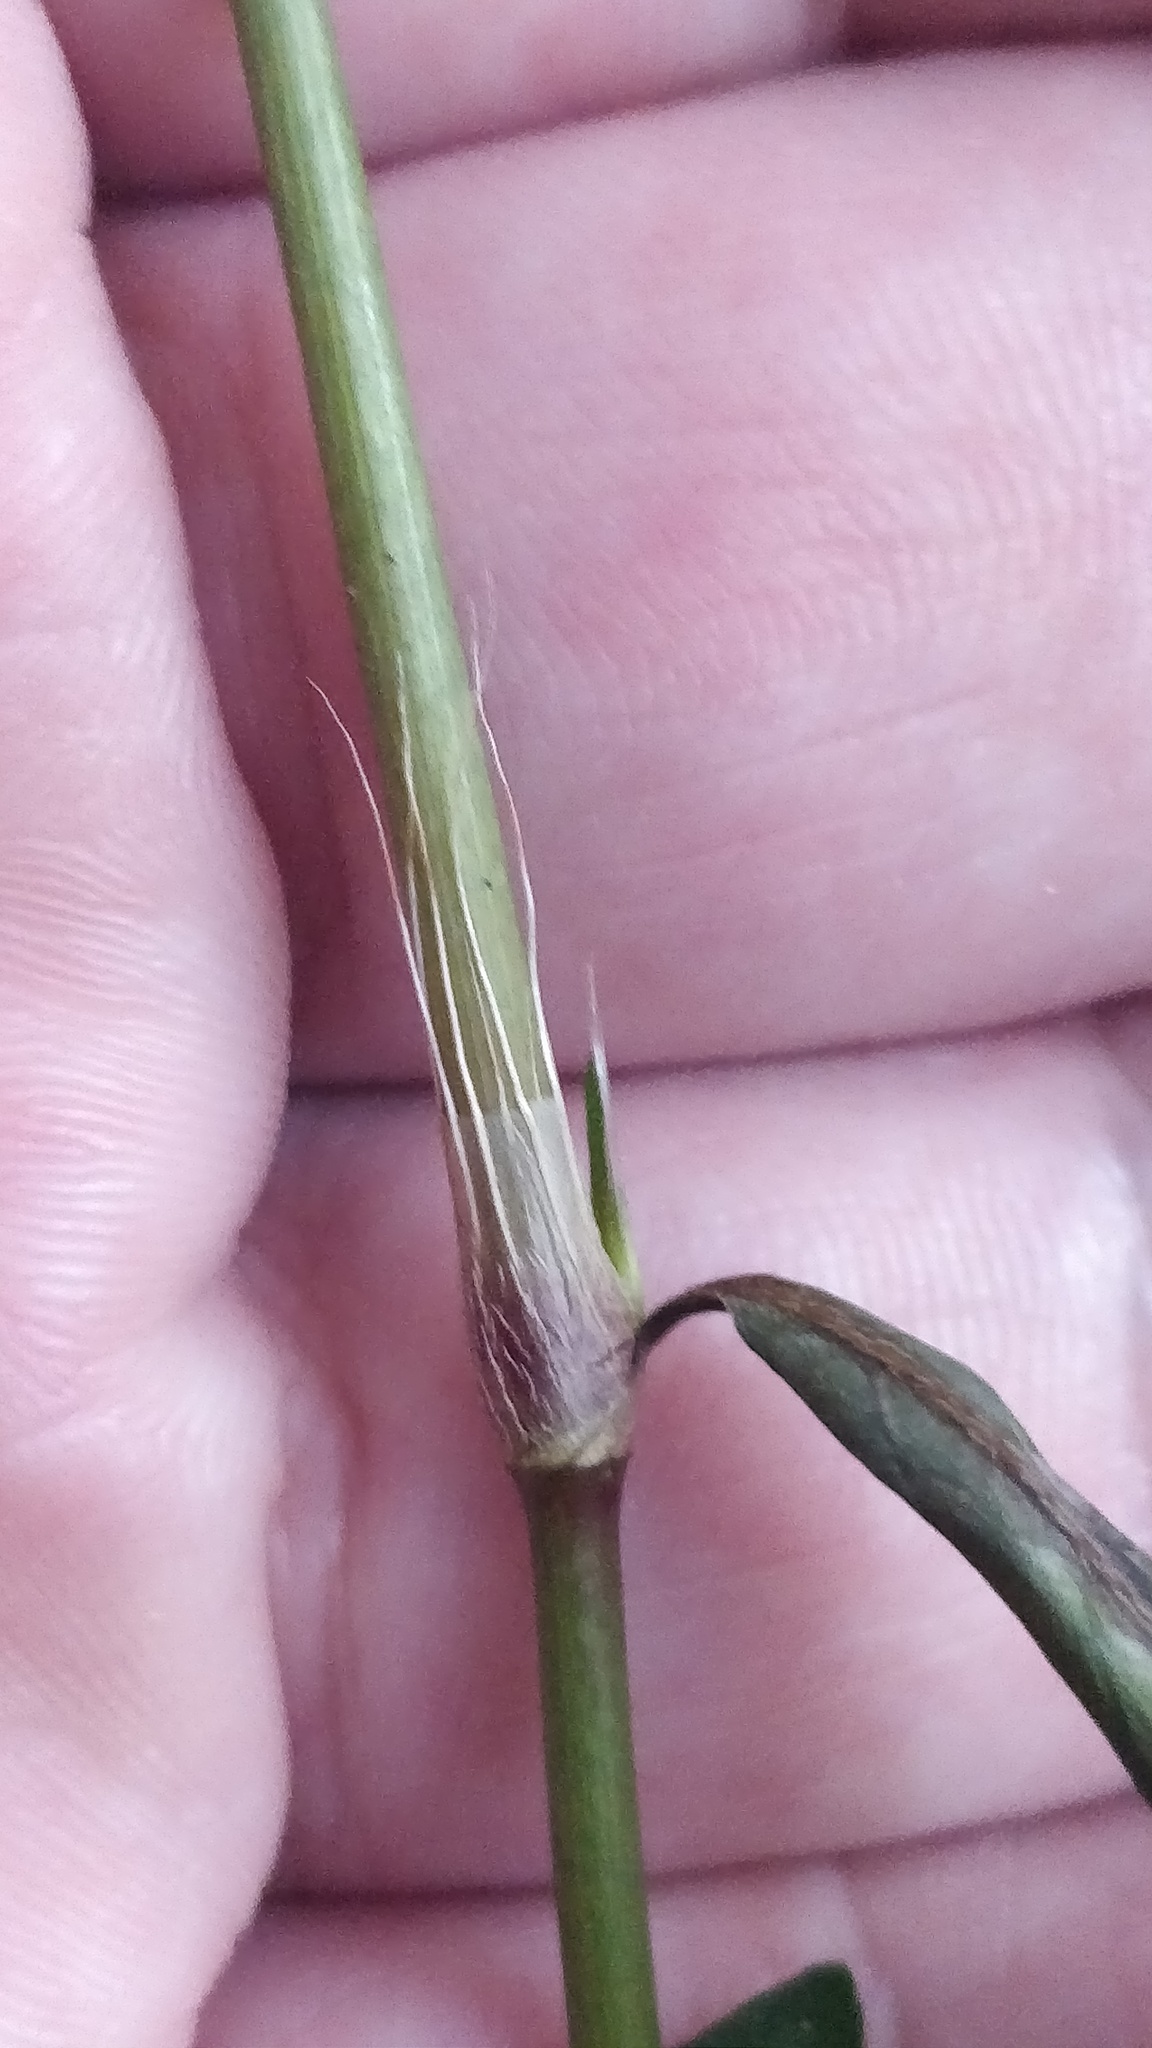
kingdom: Plantae
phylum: Tracheophyta
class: Magnoliopsida
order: Caryophyllales
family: Polygonaceae
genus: Persicaria
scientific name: Persicaria longiseta
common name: Bristly lady's-thumb
